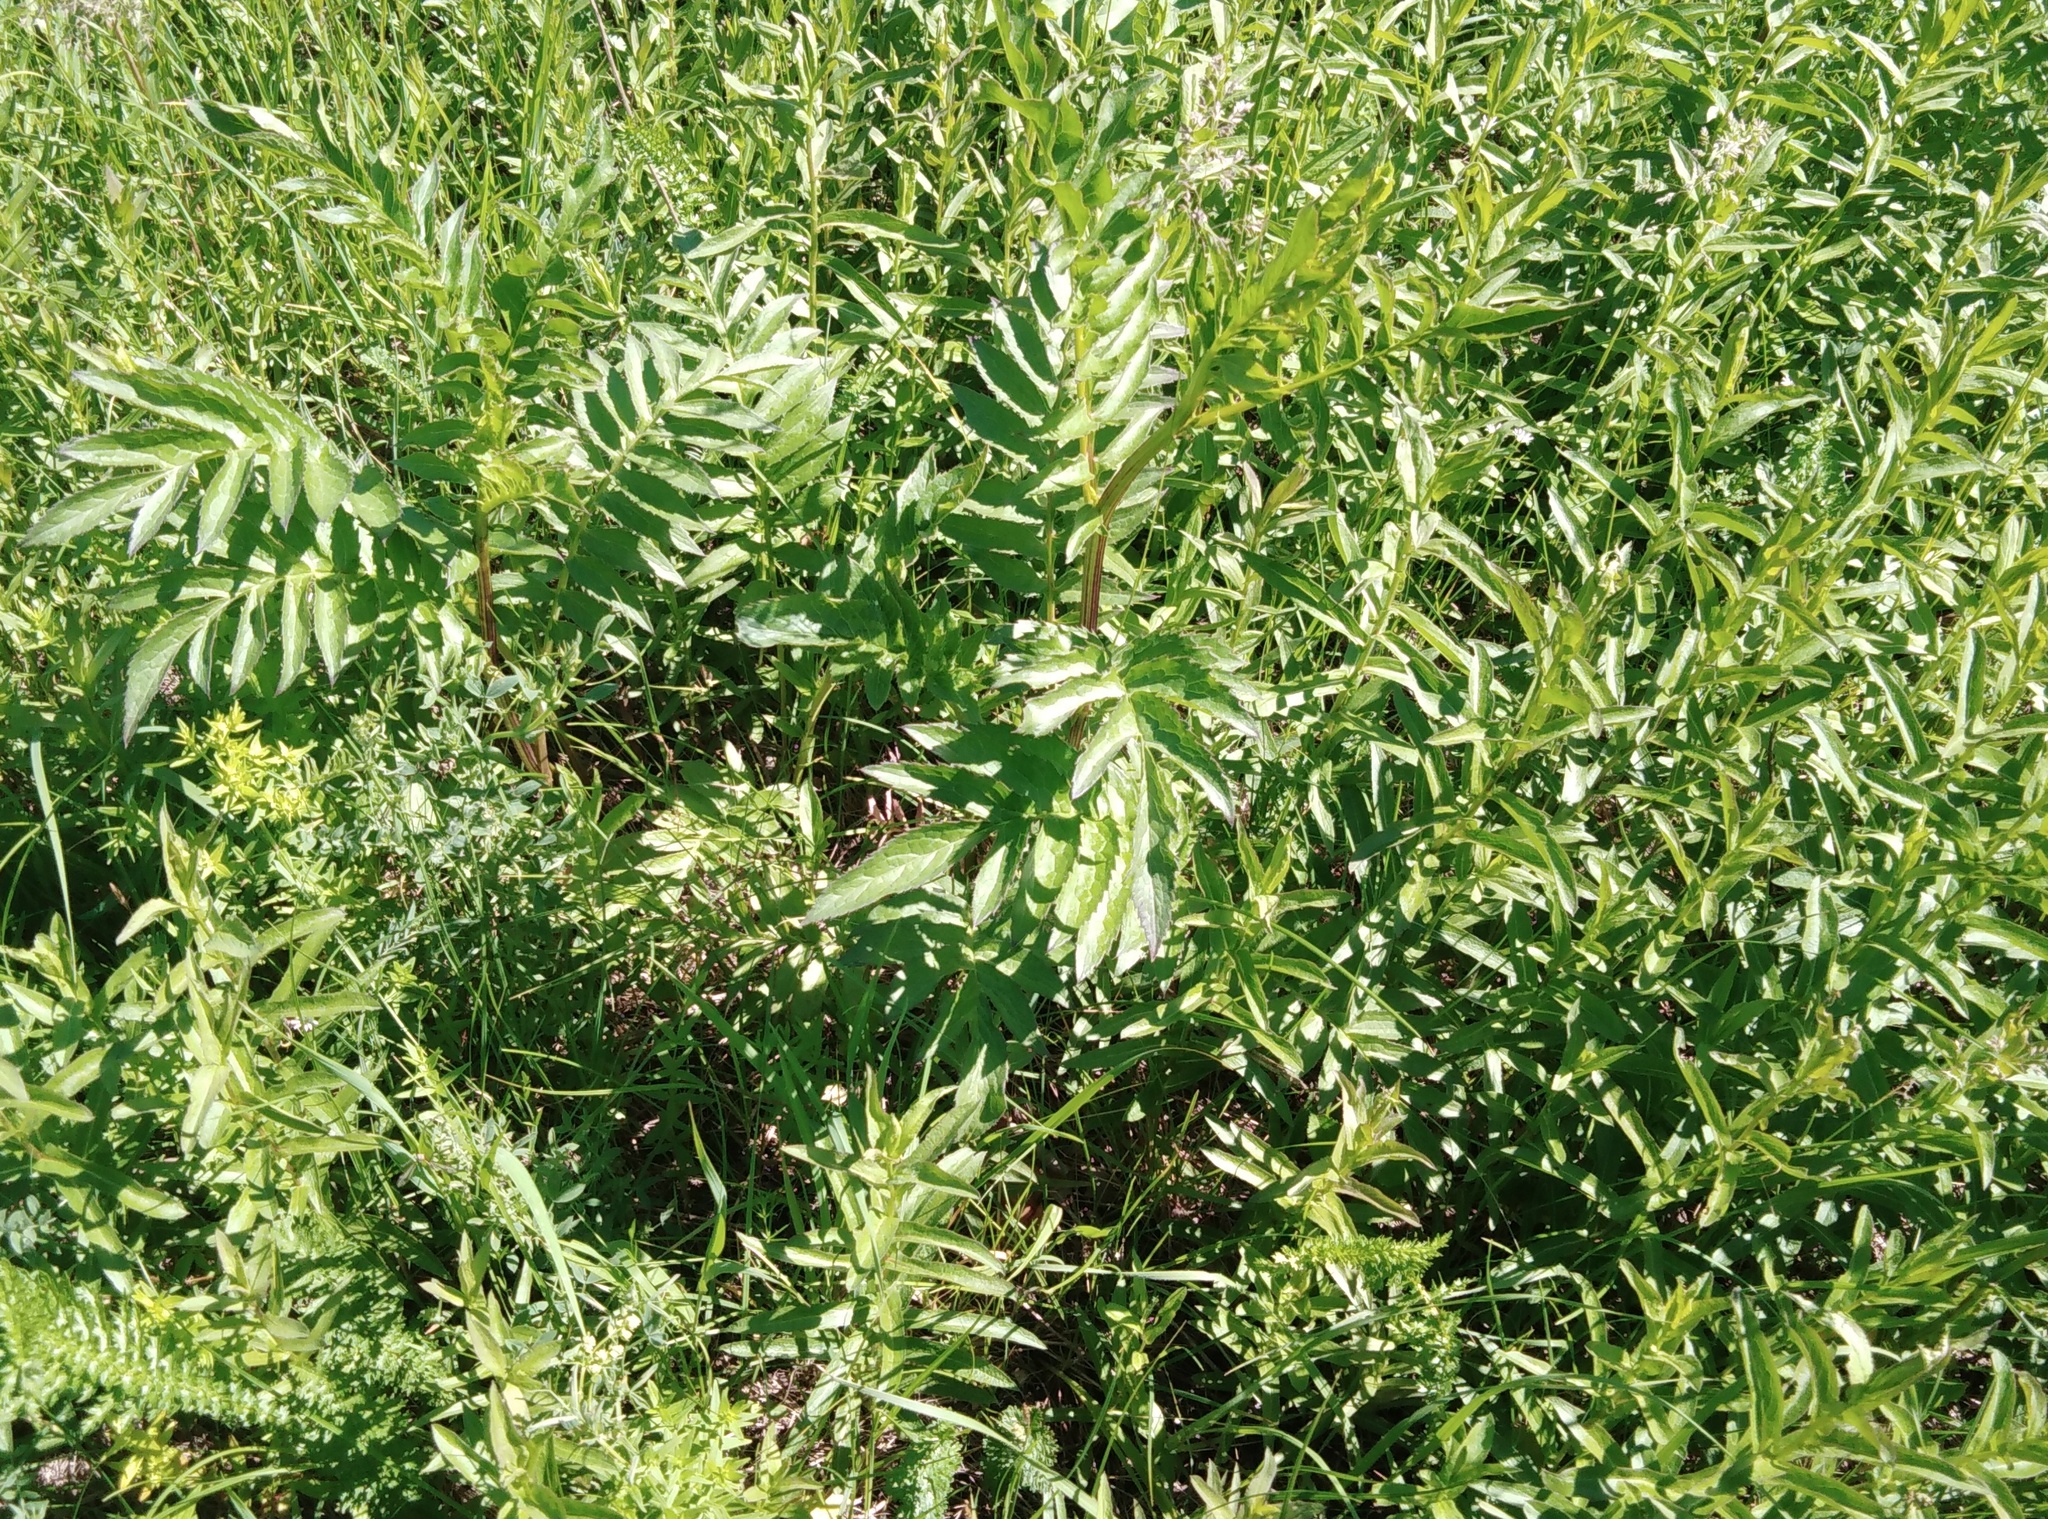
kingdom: Plantae
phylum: Tracheophyta
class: Magnoliopsida
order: Asterales
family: Asteraceae
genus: Serratula
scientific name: Serratula coronata
